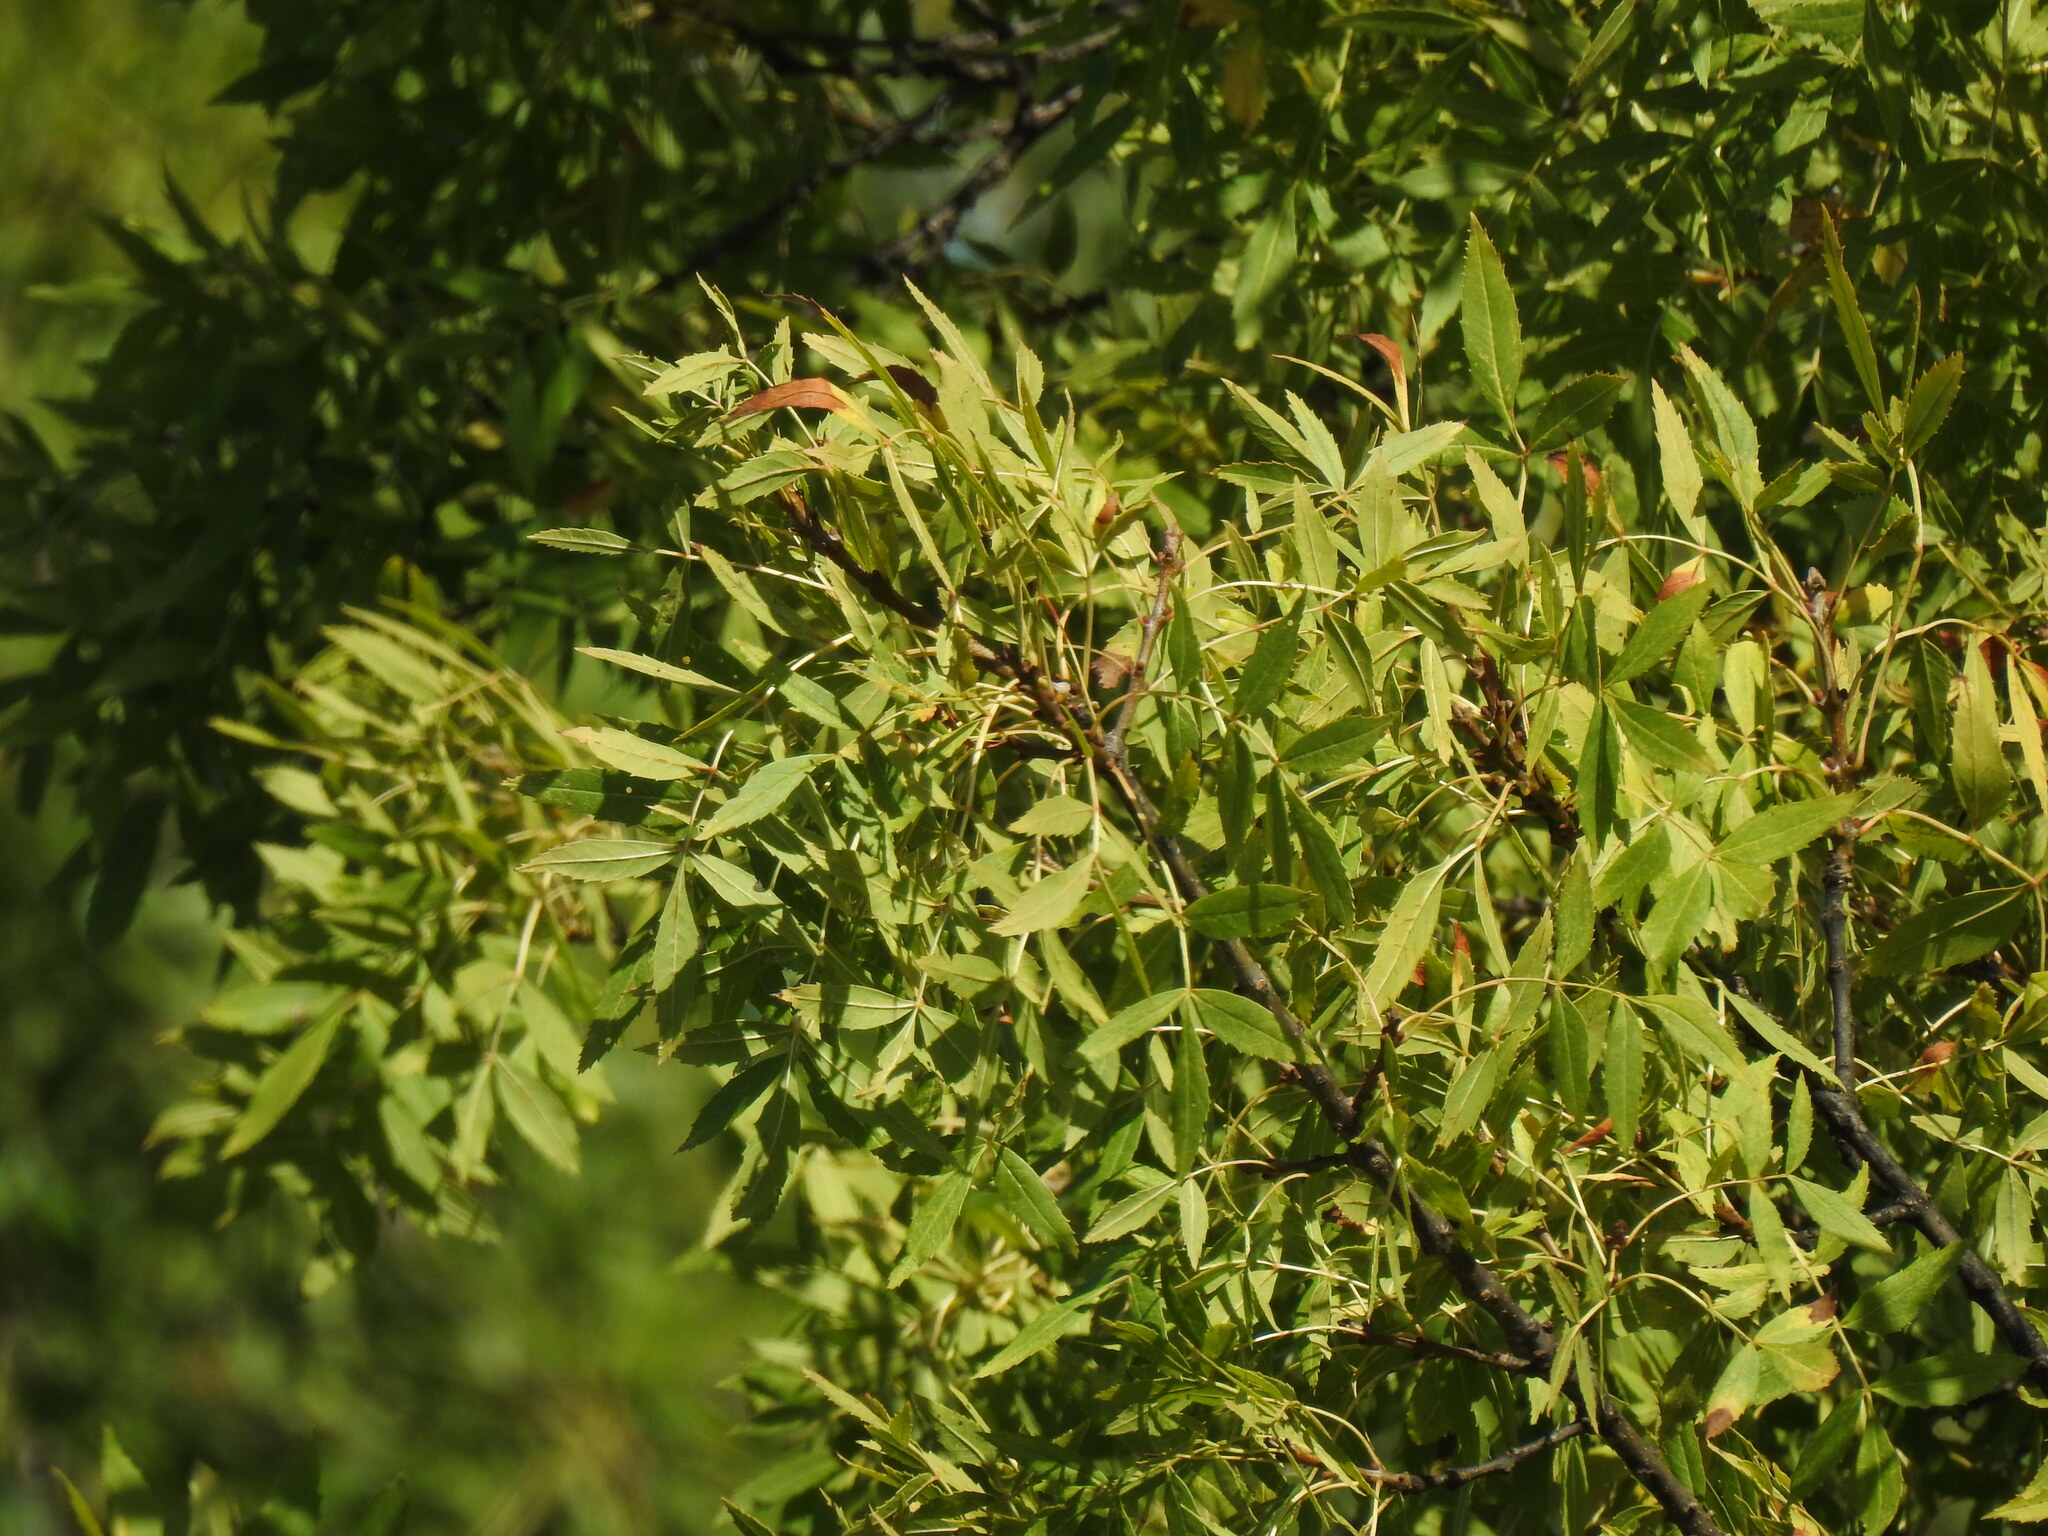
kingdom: Plantae
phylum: Tracheophyta
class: Magnoliopsida
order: Lamiales
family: Oleaceae
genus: Fraxinus
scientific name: Fraxinus angustifolia
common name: Narrow-leafed ash
